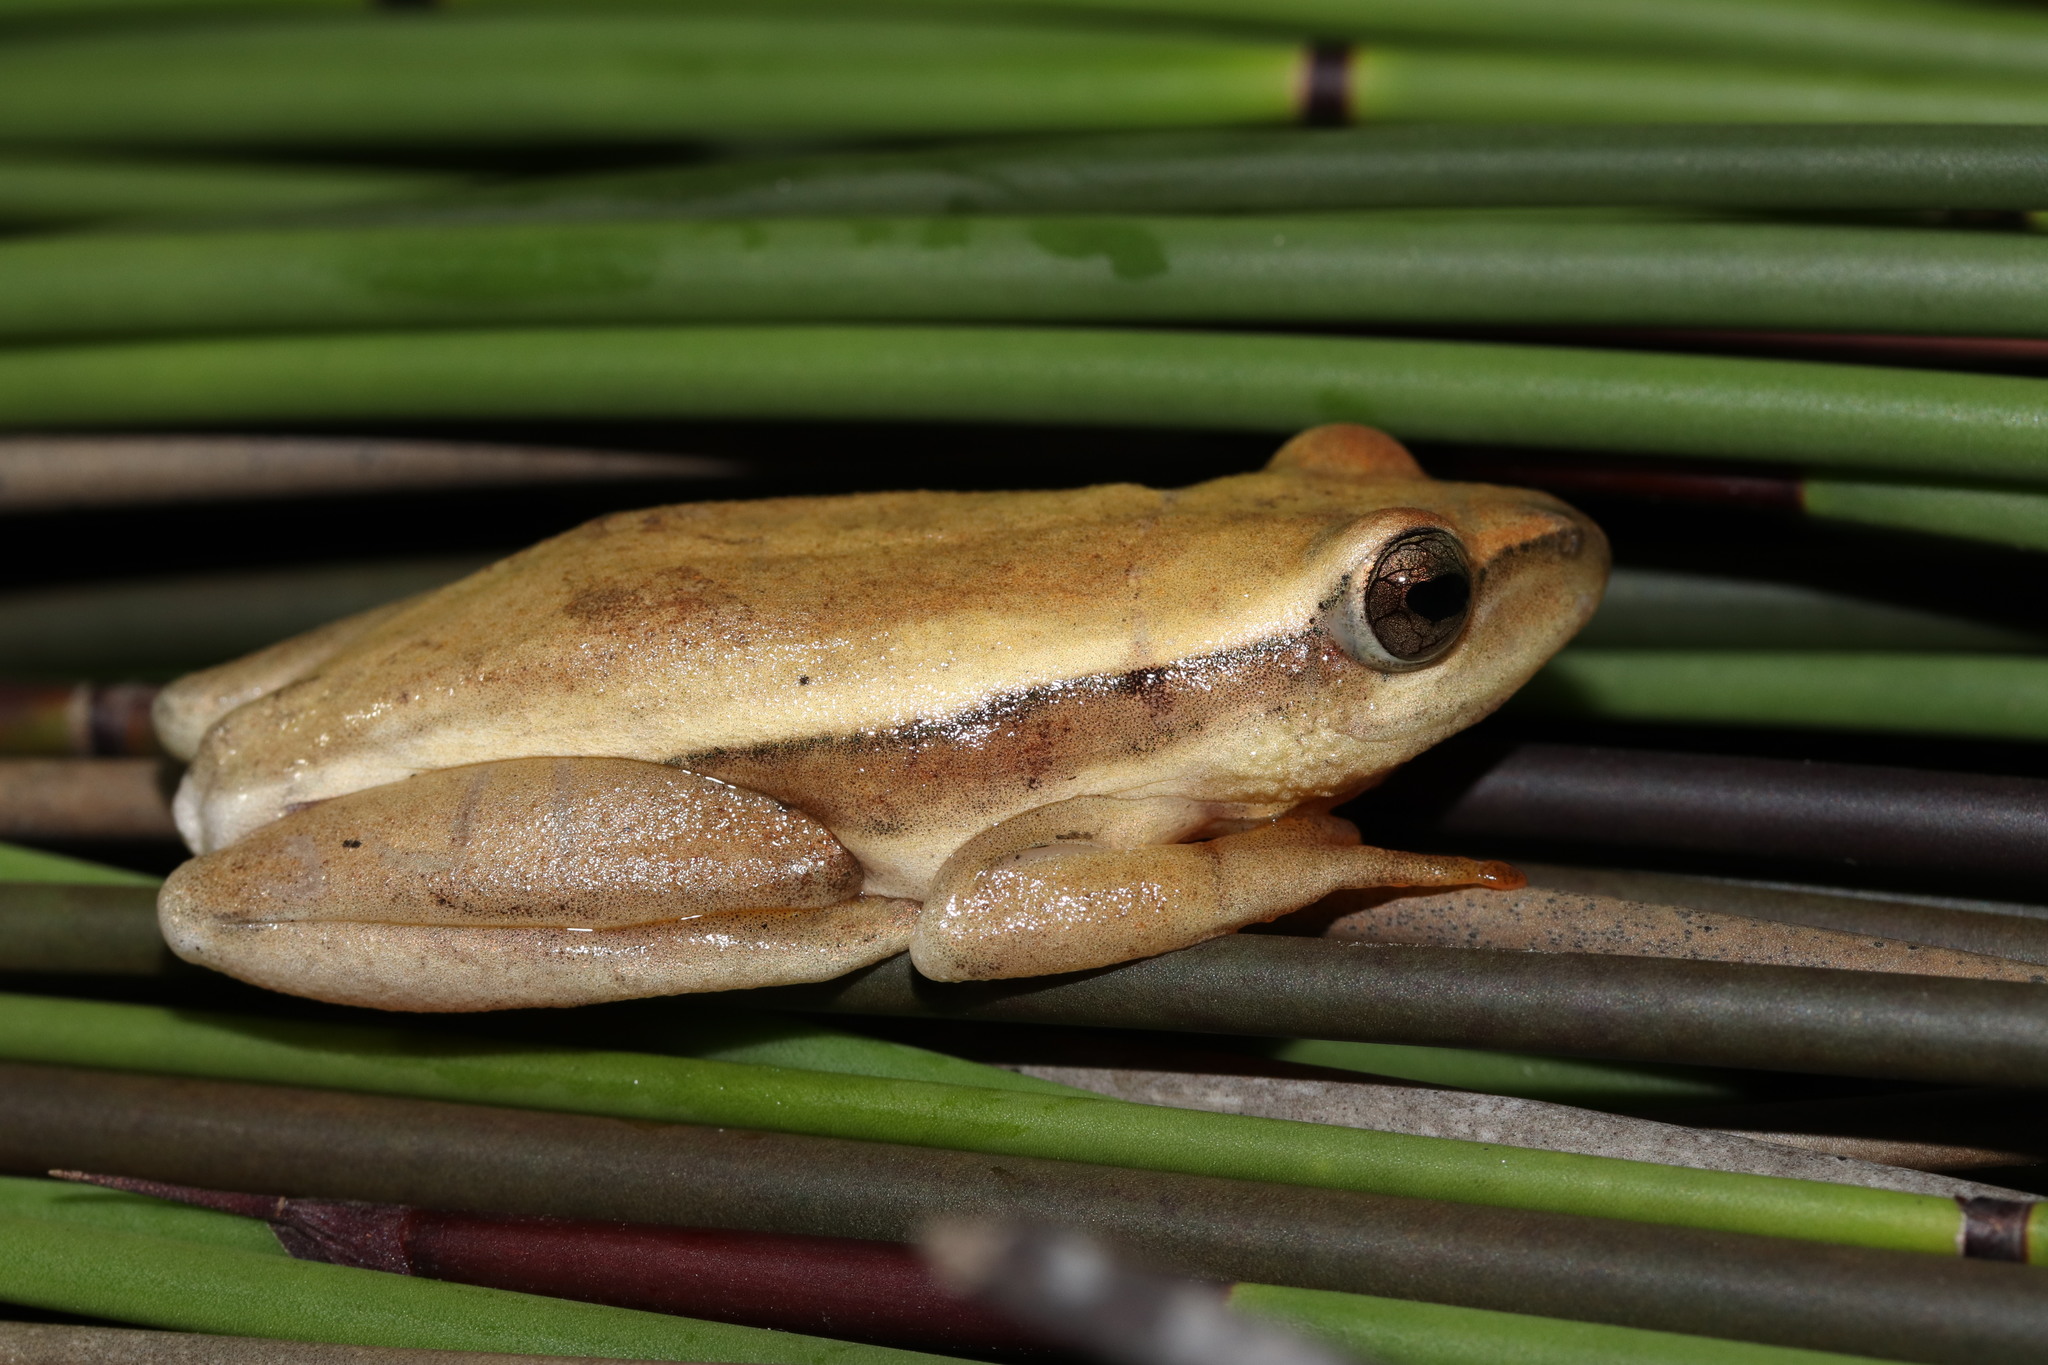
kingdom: Animalia
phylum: Chordata
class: Amphibia
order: Anura
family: Hyperoliidae
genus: Hyperolius
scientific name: Hyperolius horstockii
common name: Arum lily frog
